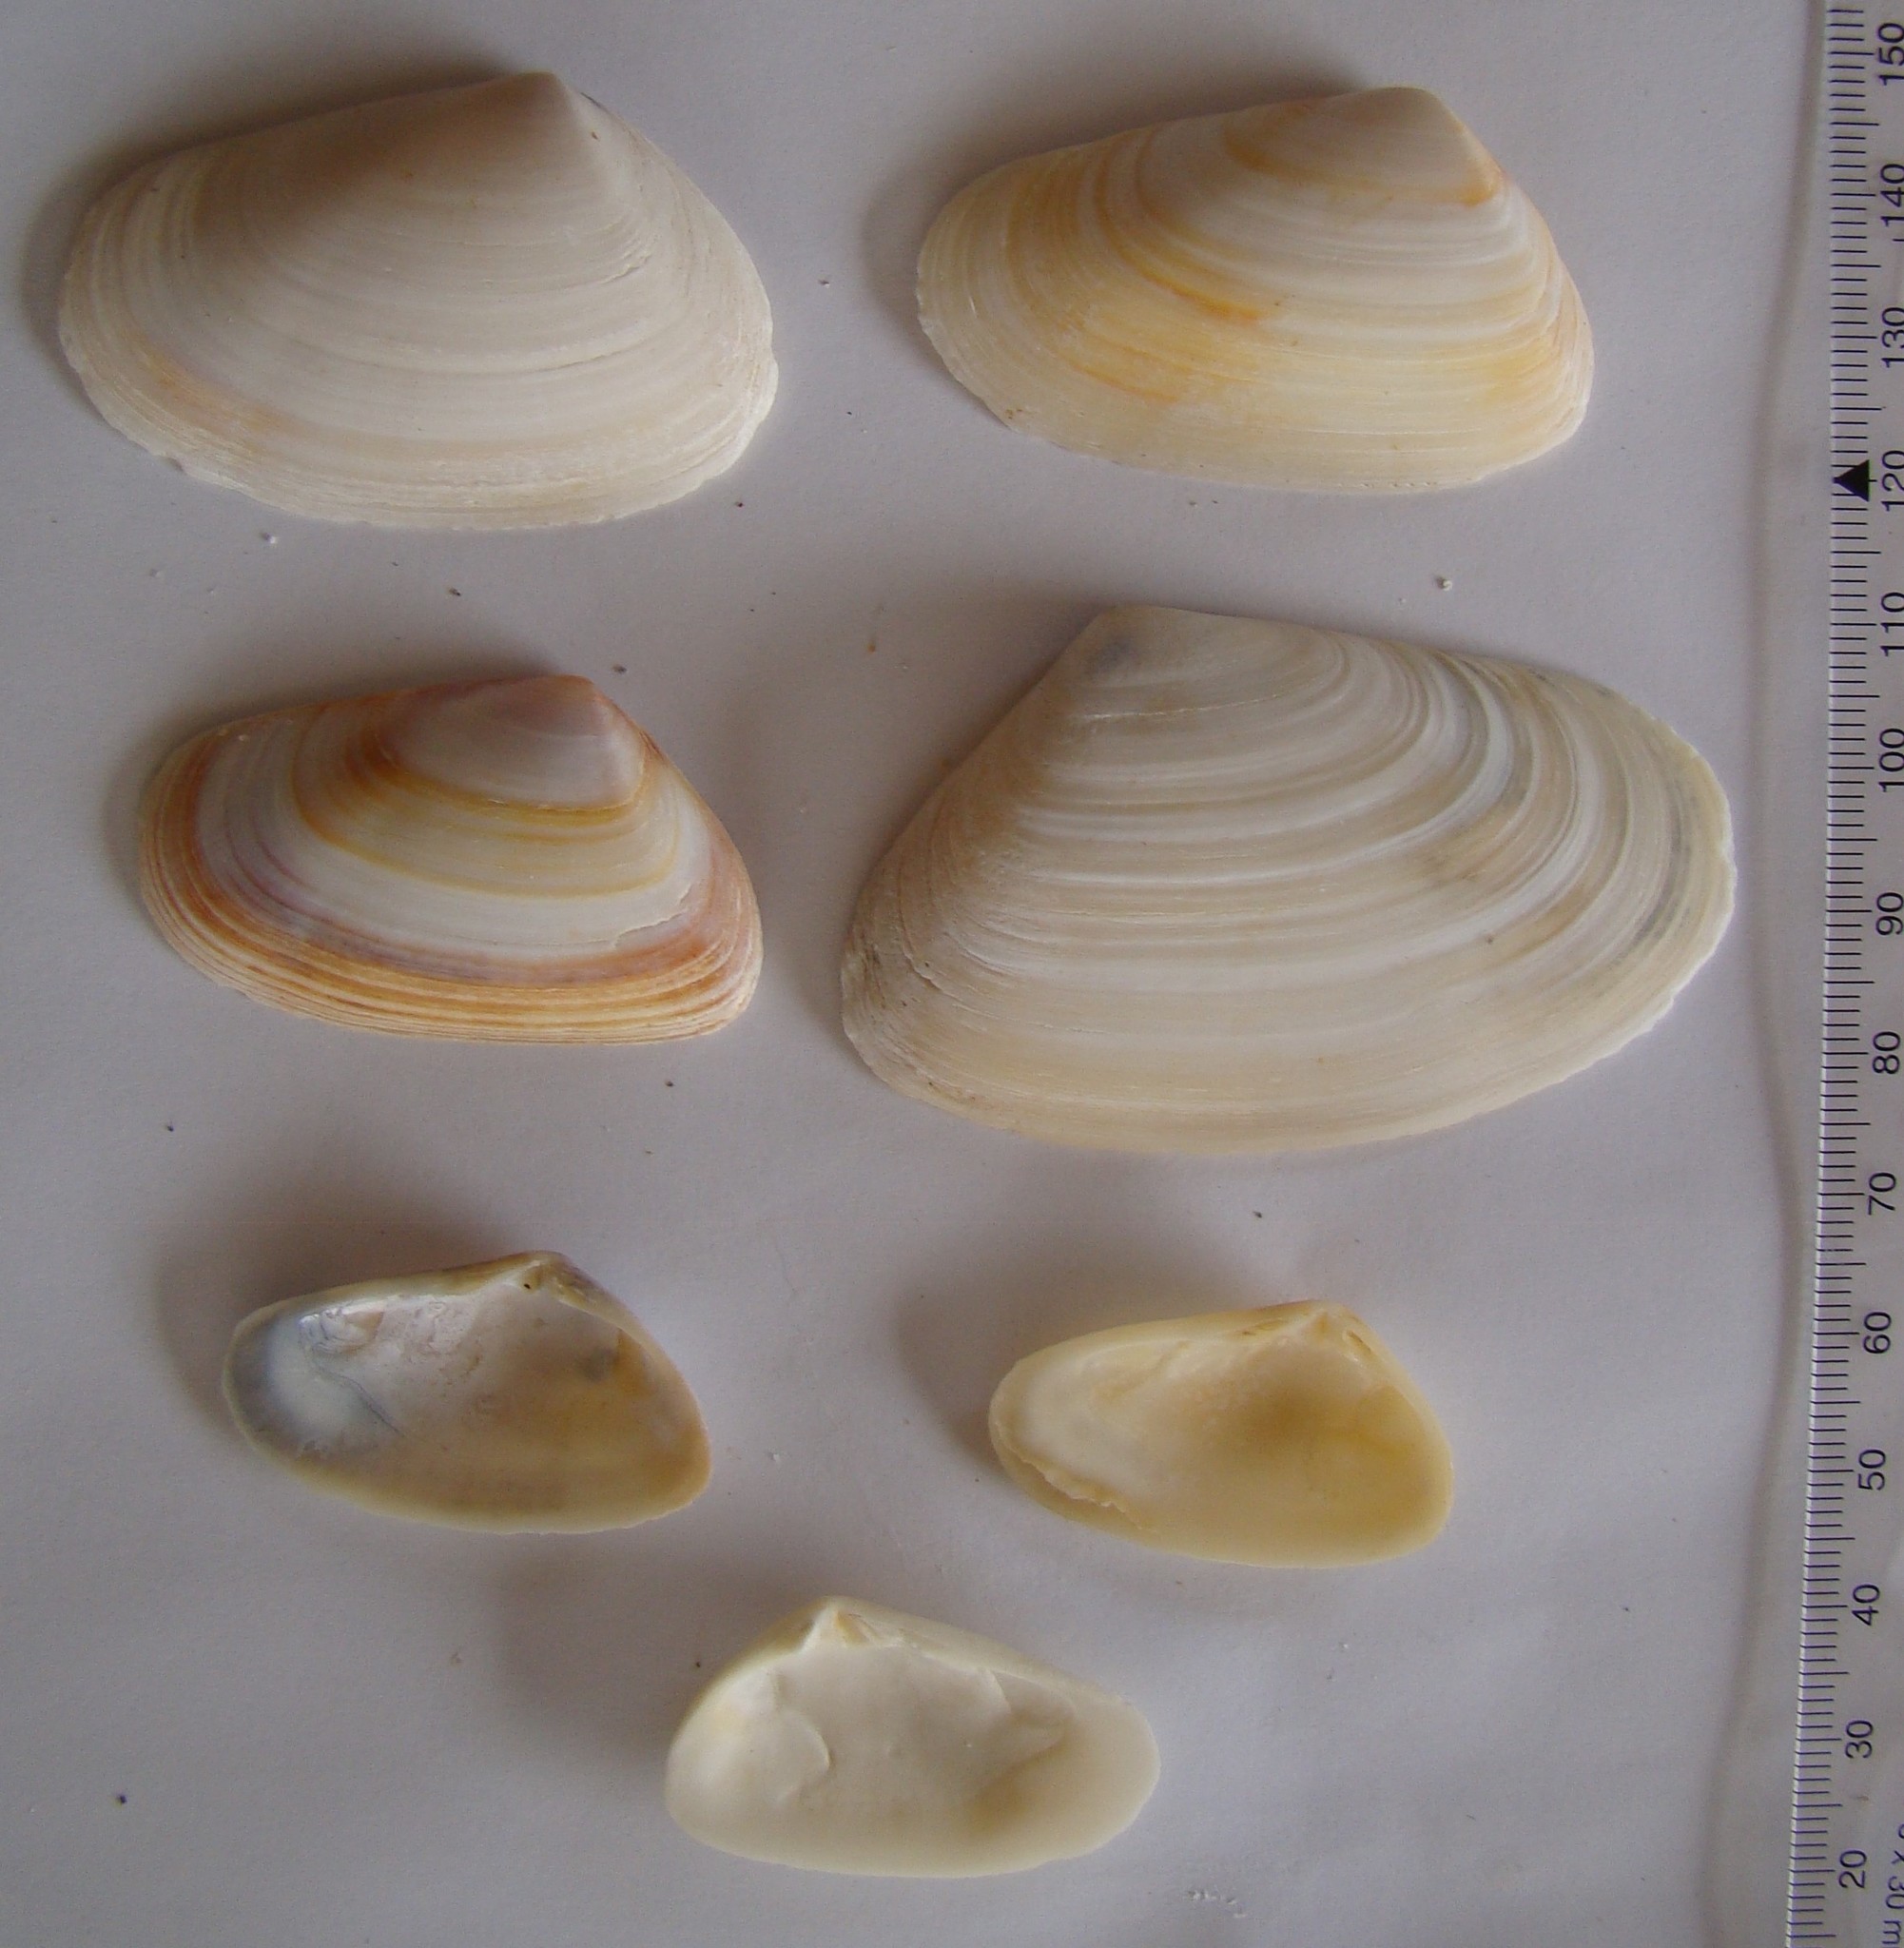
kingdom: Animalia
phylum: Mollusca
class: Bivalvia
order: Venerida
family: Mesodesmatidae
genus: Paphies
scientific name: Paphies subtriangulata
